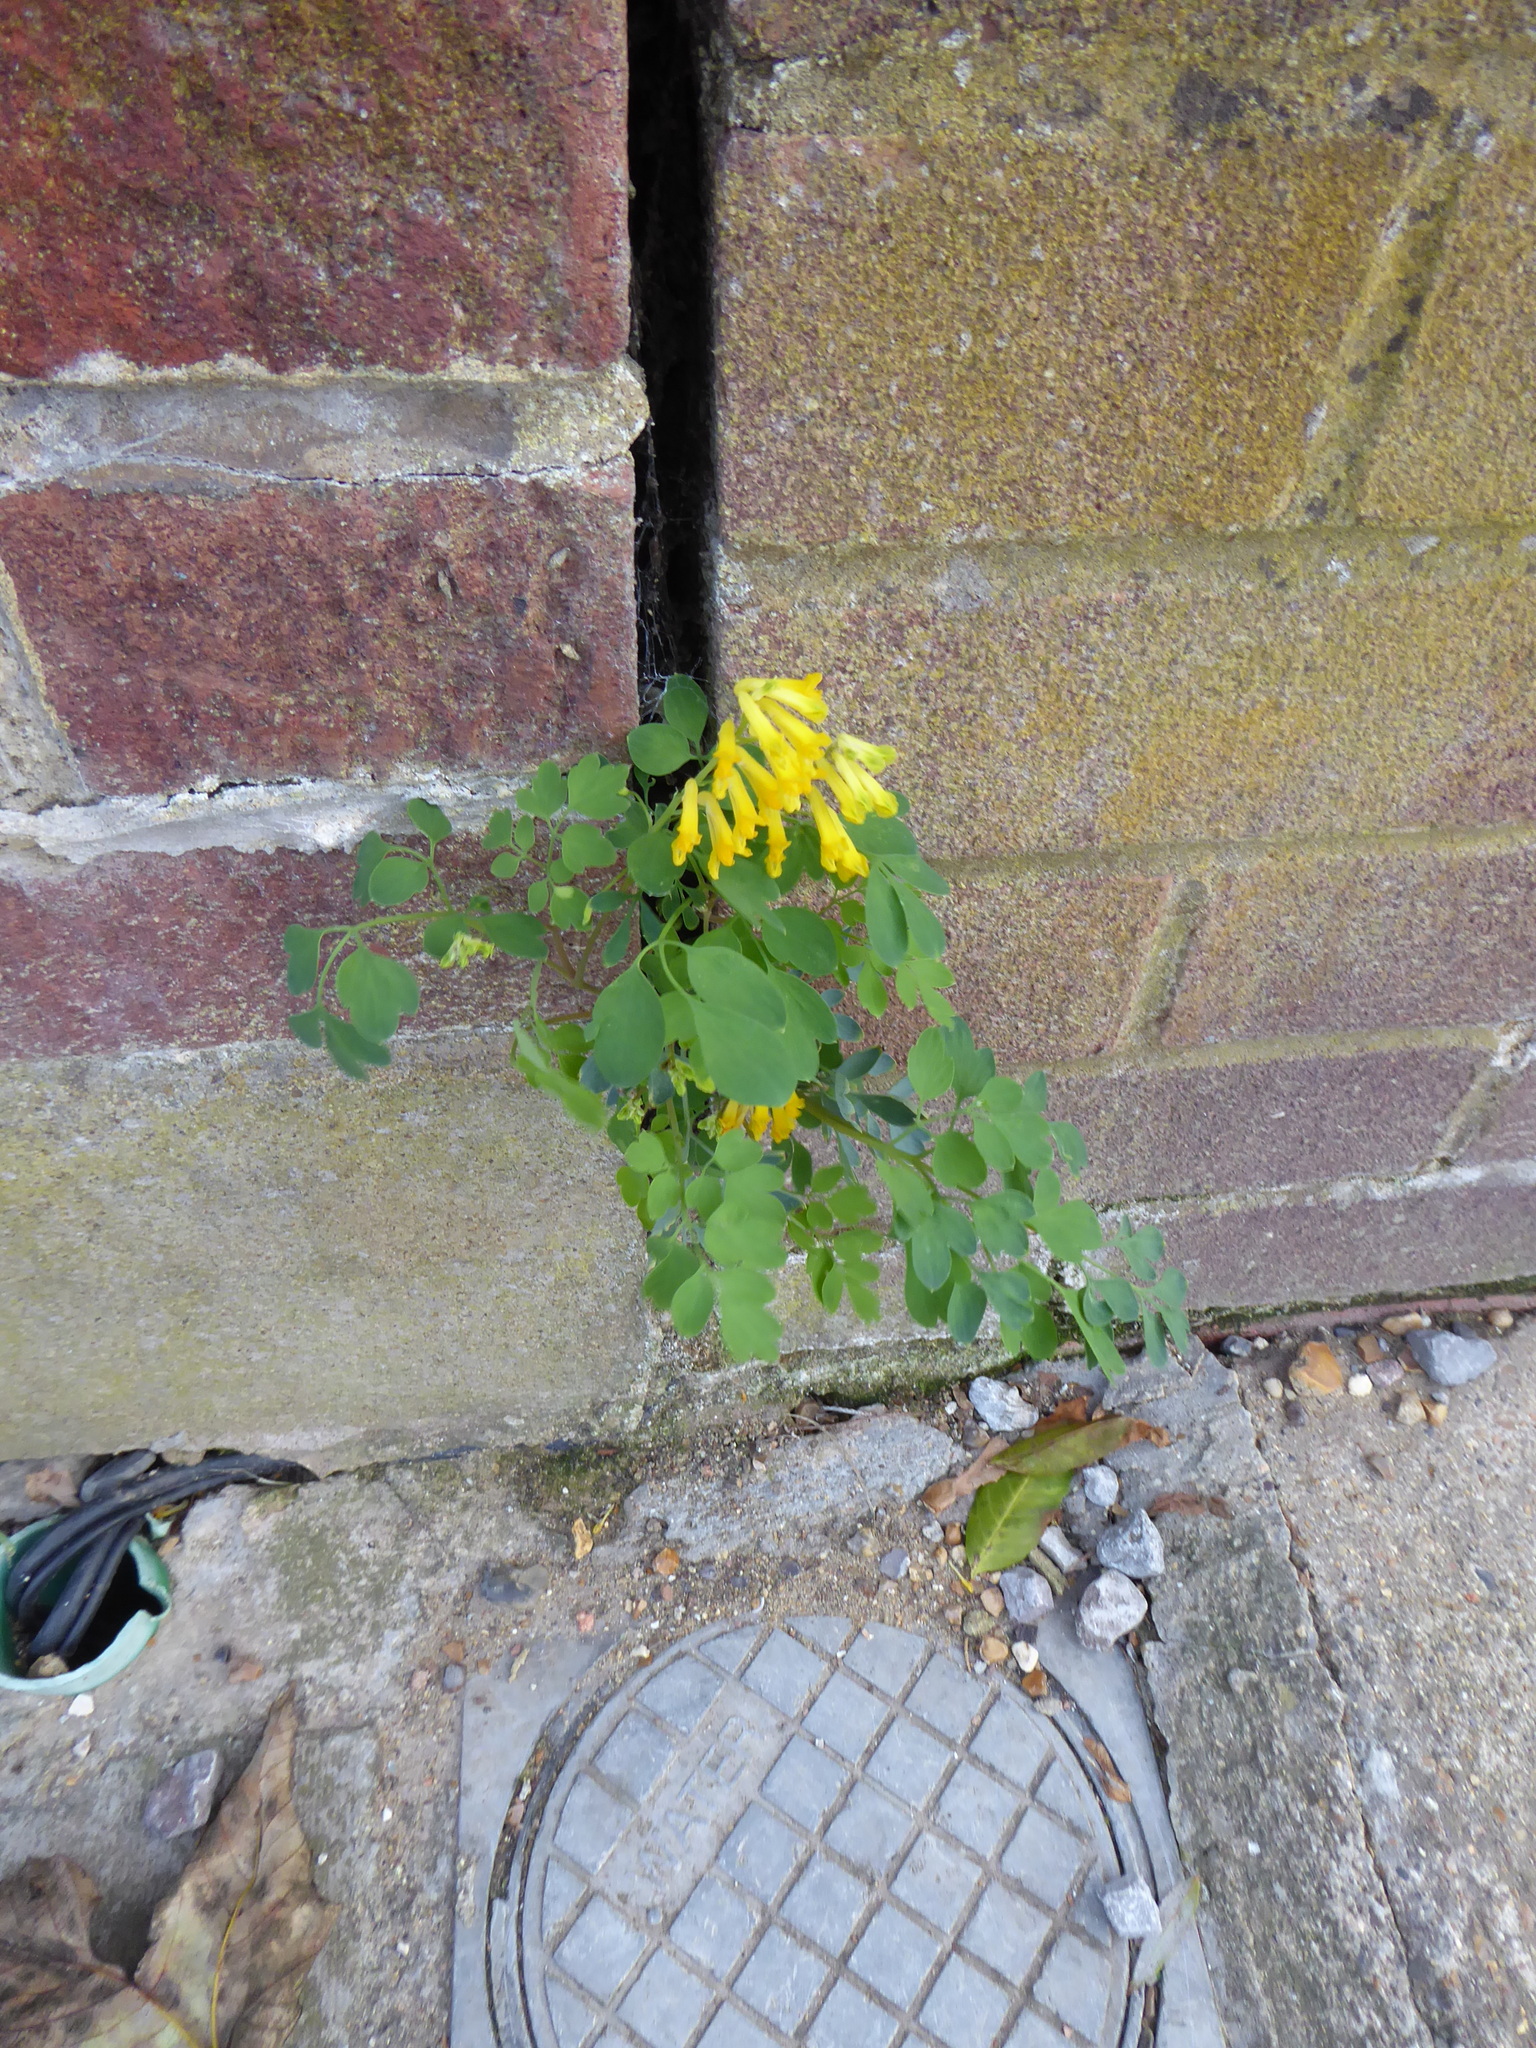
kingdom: Plantae
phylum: Tracheophyta
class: Magnoliopsida
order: Ranunculales
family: Papaveraceae
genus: Pseudofumaria
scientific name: Pseudofumaria lutea
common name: Yellow corydalis
